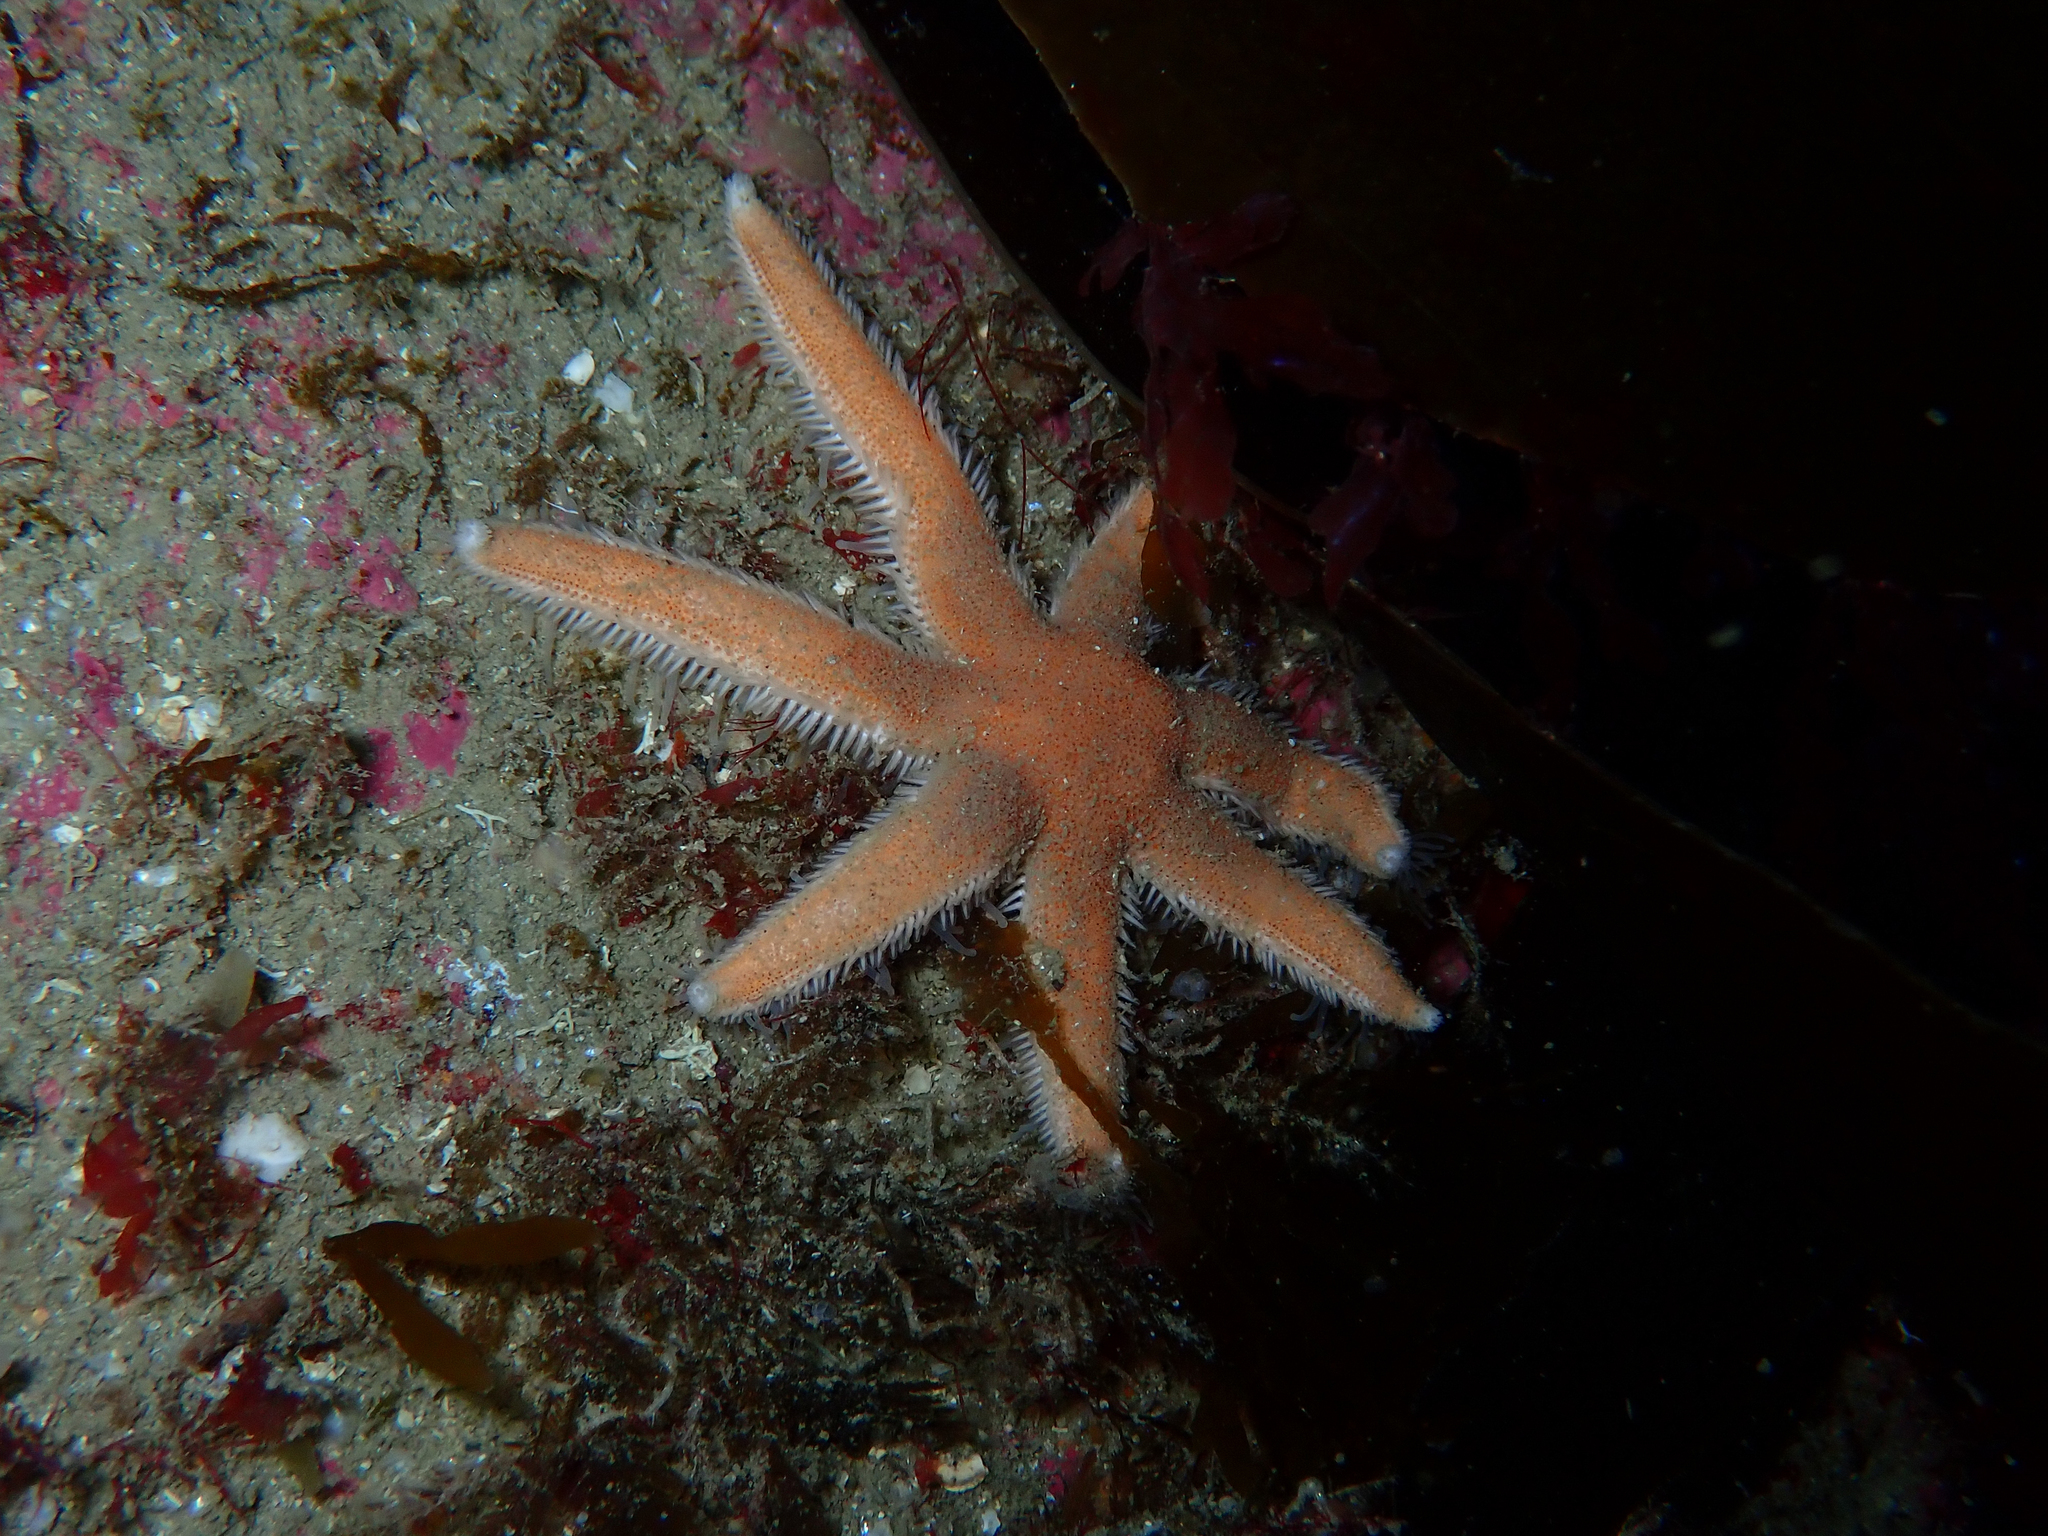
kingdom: Animalia
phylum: Echinodermata
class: Asteroidea
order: Paxillosida
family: Luidiidae
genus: Luidia
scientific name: Luidia ciliaris
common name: Seven-armed starfish
